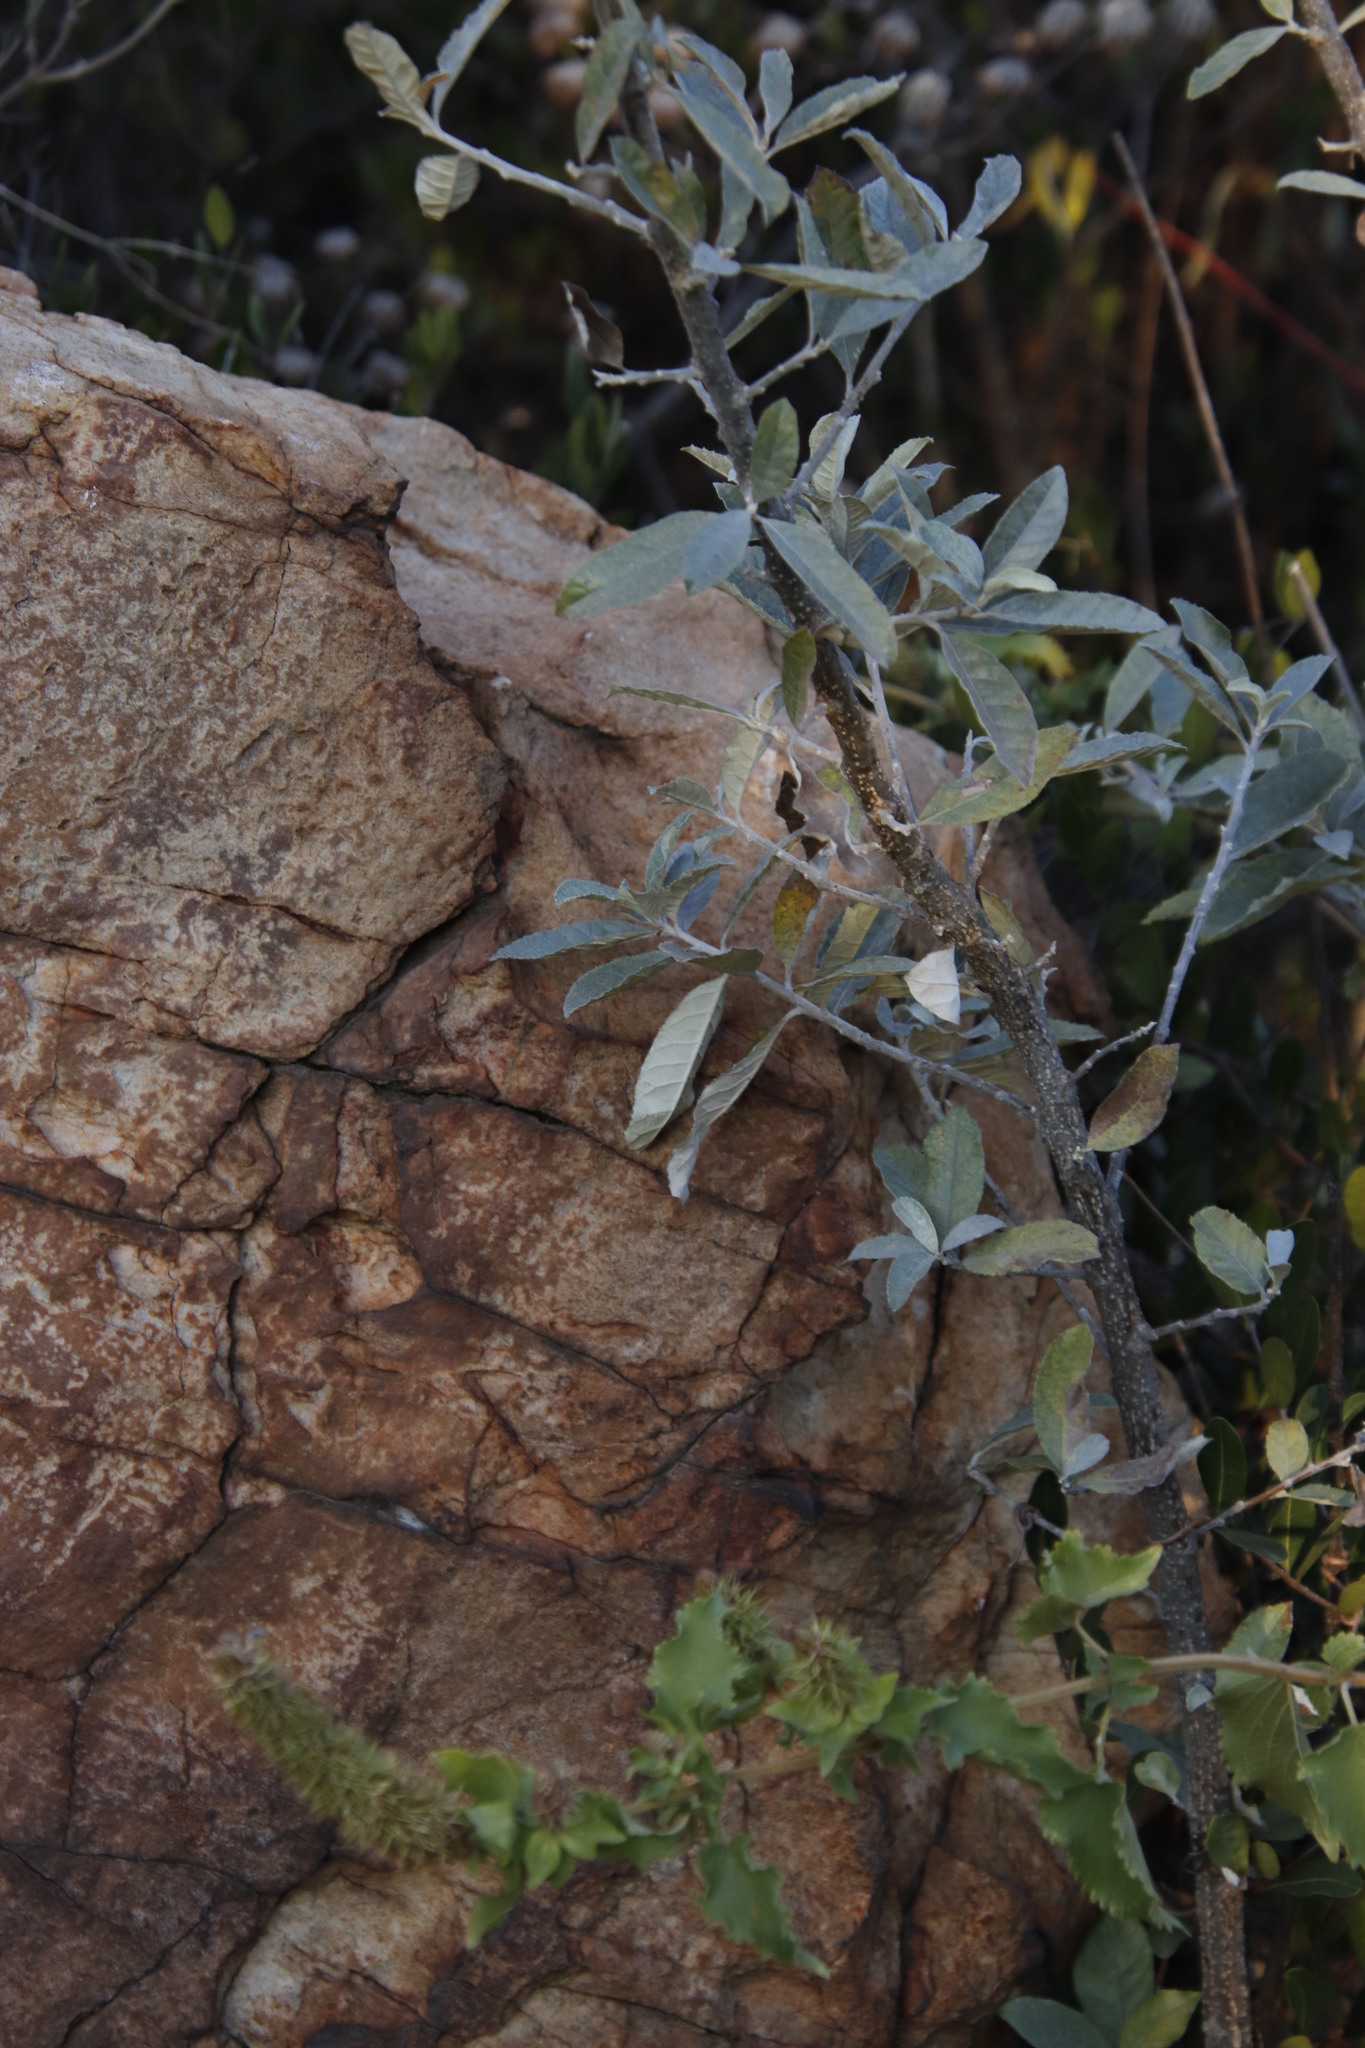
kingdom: Plantae
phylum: Tracheophyta
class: Magnoliopsida
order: Asterales
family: Asteraceae
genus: Pseudognaphalium
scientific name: Pseudognaphalium microcephalum
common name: San diego rabbit-tobacco
